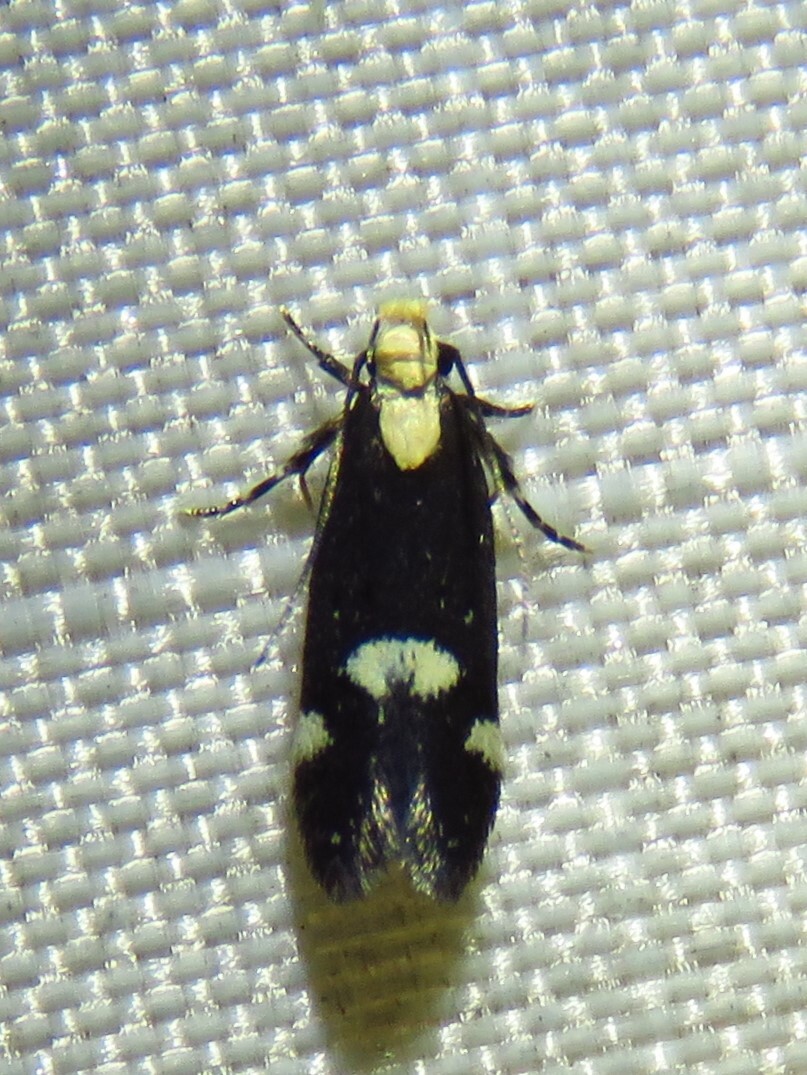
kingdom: Animalia
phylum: Arthropoda
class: Insecta
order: Lepidoptera
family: Gelechiidae
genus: Chionodes
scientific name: Chionodes mariona
